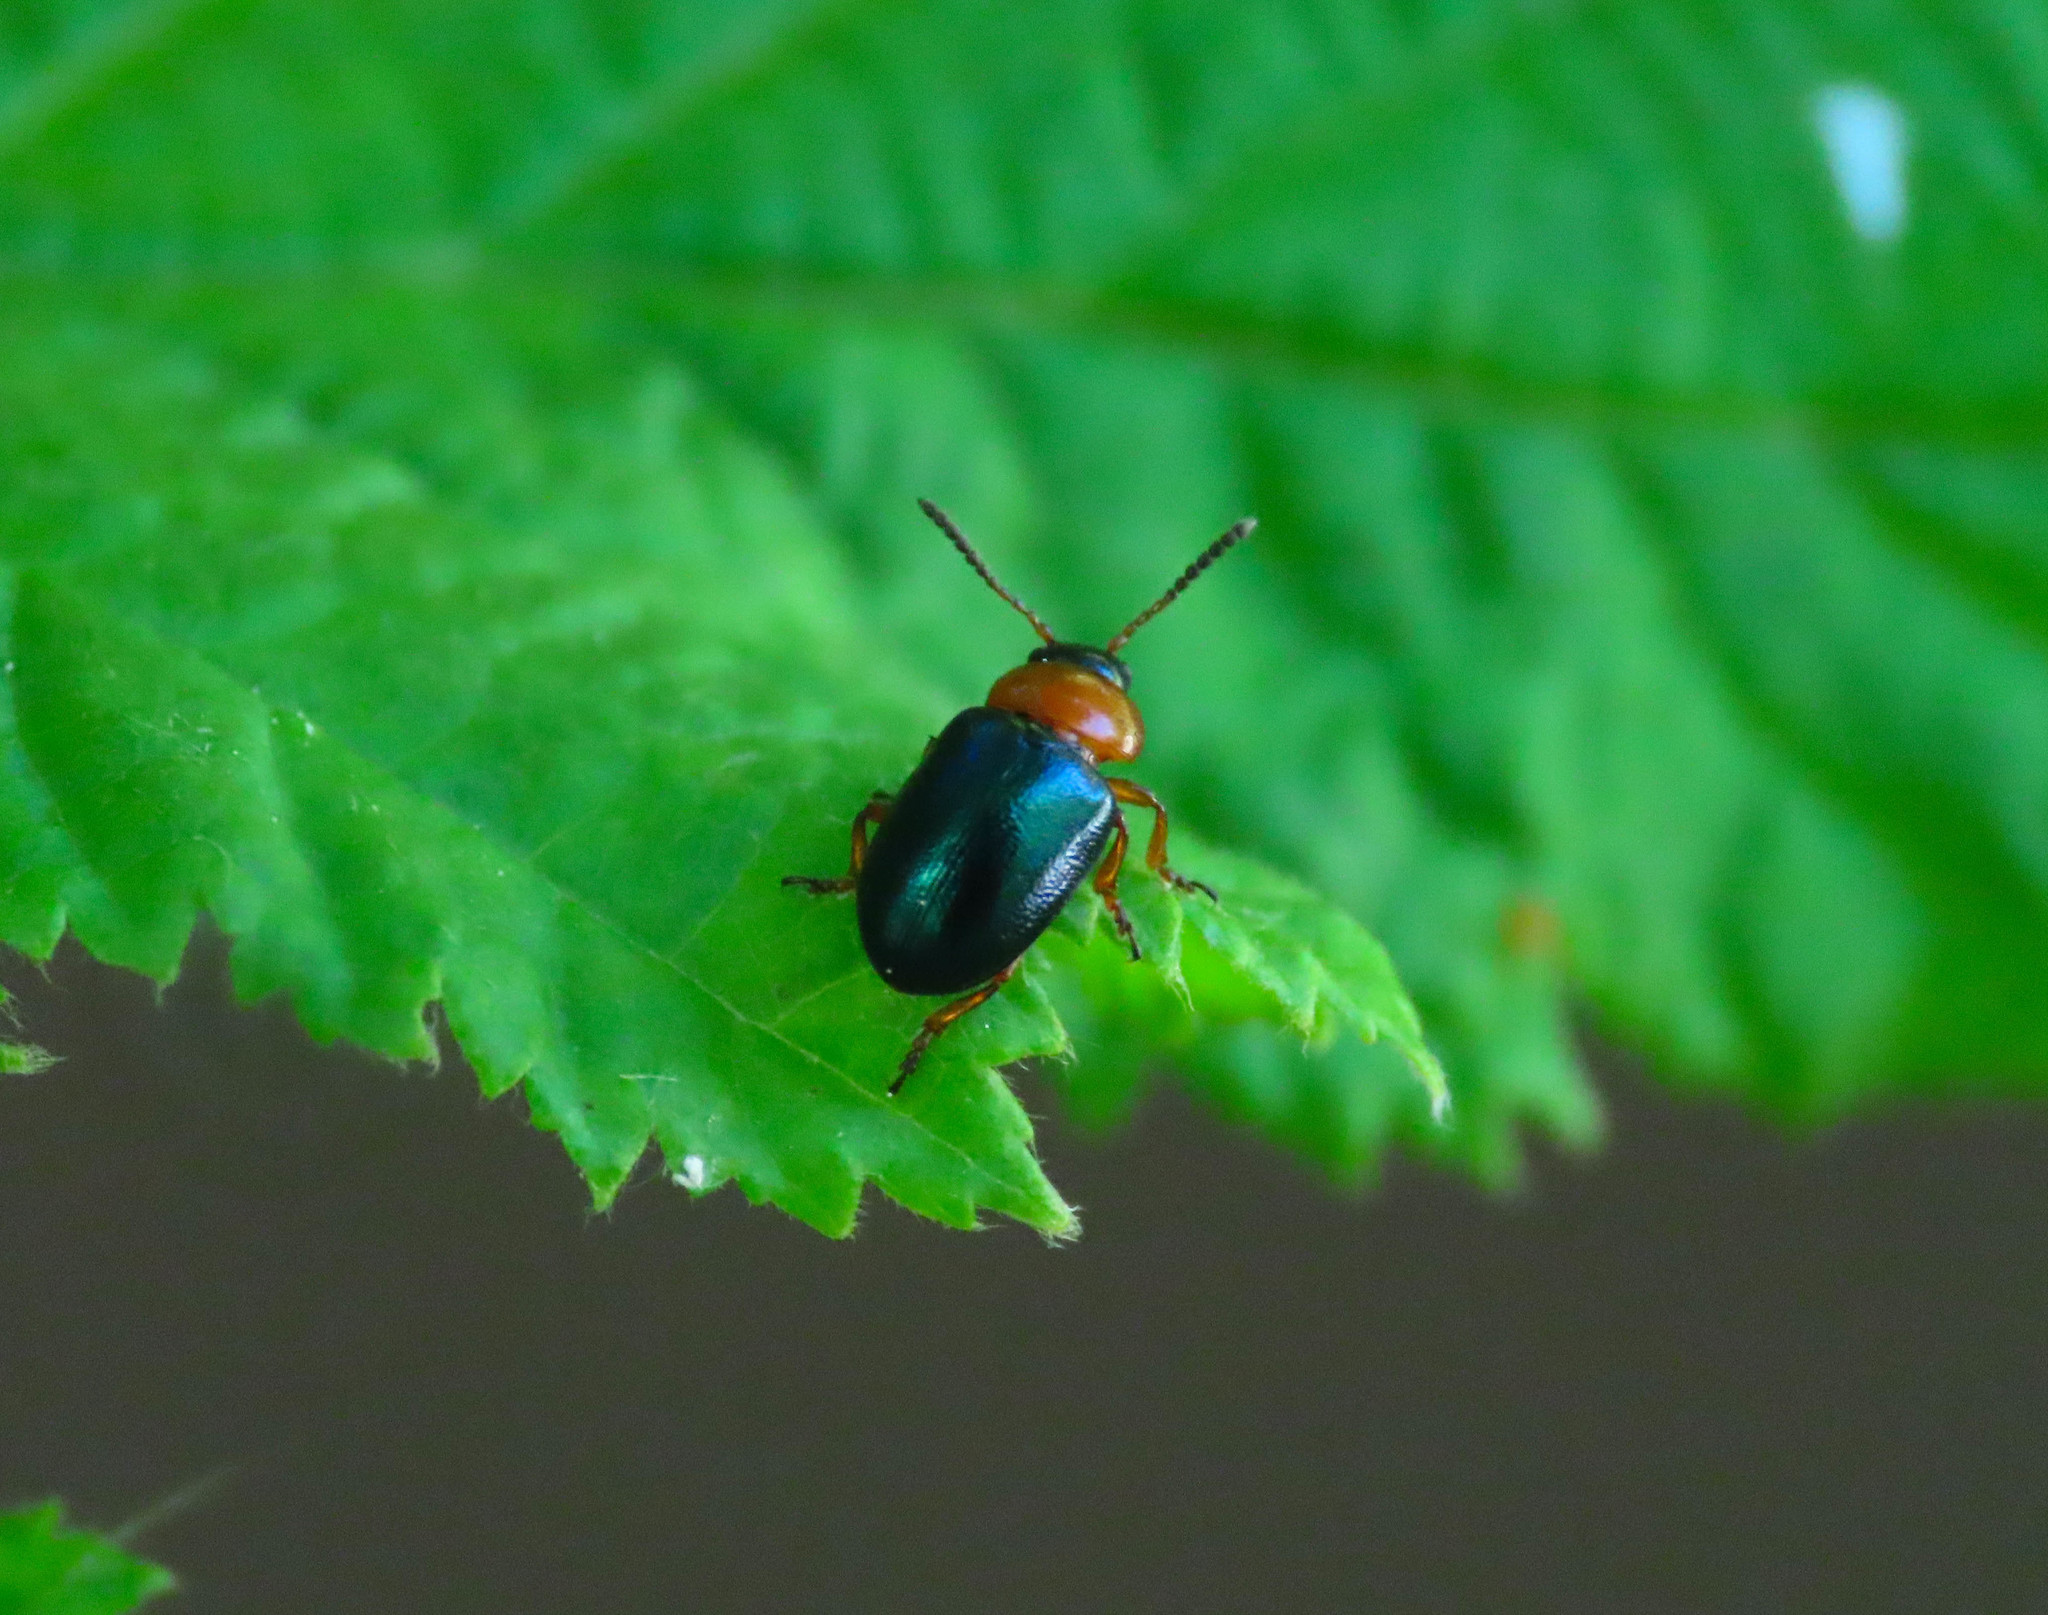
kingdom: Animalia
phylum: Arthropoda
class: Insecta
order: Coleoptera
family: Chrysomelidae
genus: Gastrophysa
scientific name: Gastrophysa polygoni
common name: Knotweed leaf beetle
